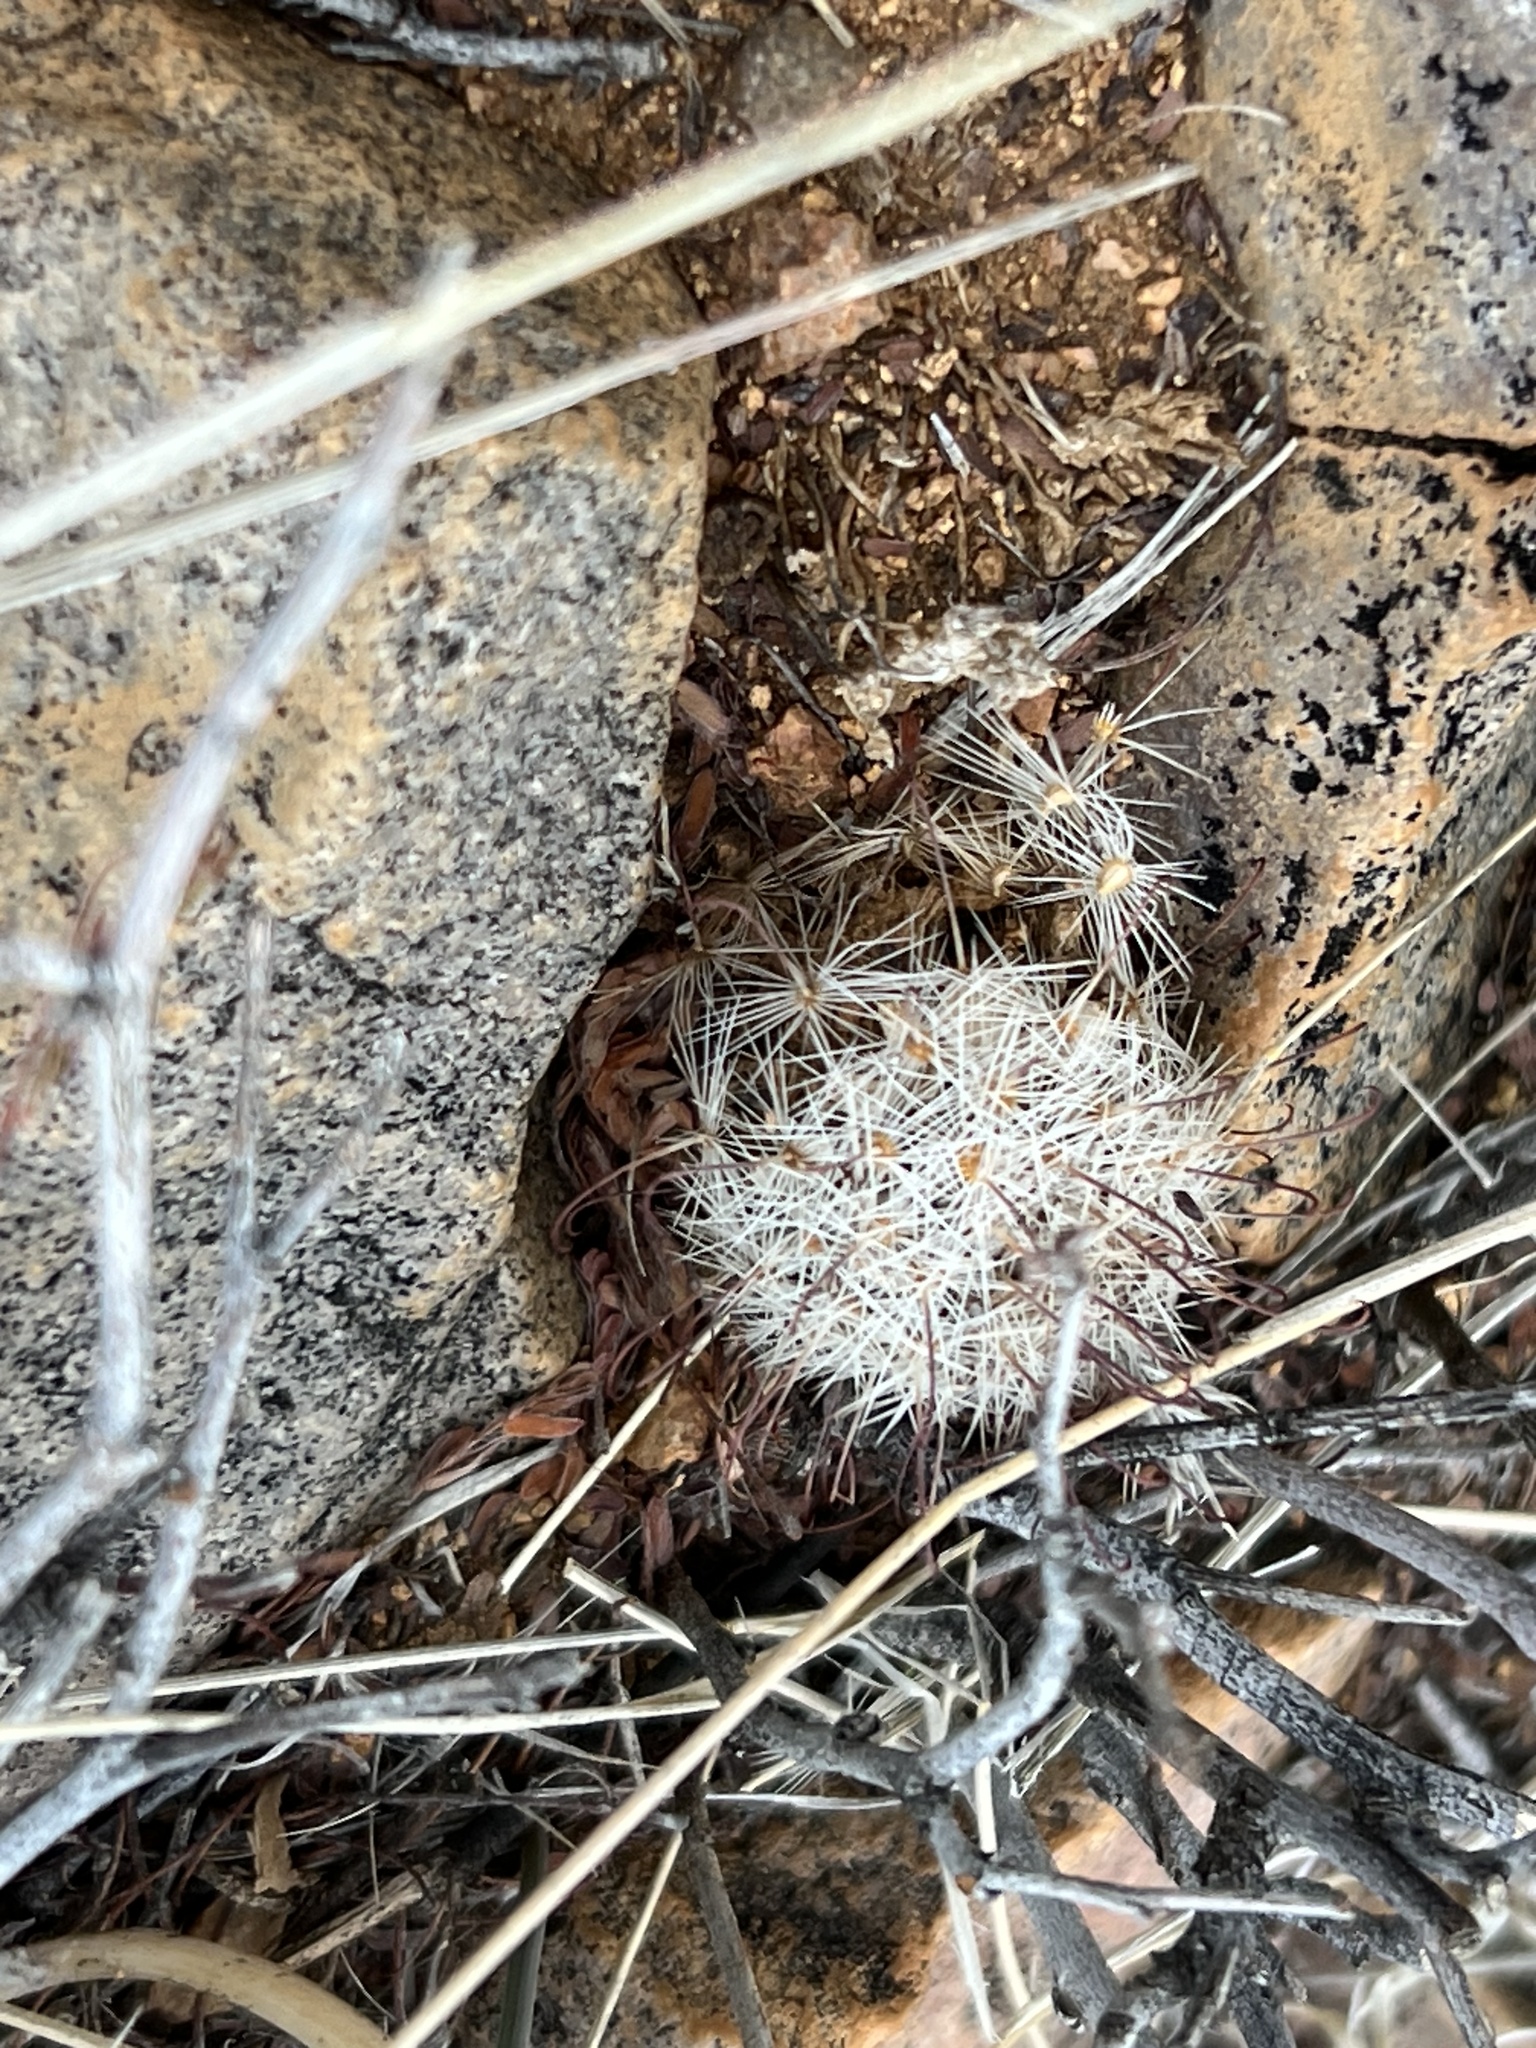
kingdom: Plantae
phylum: Tracheophyta
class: Magnoliopsida
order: Caryophyllales
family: Cactaceae
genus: Cochemiea
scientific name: Cochemiea grahamii
